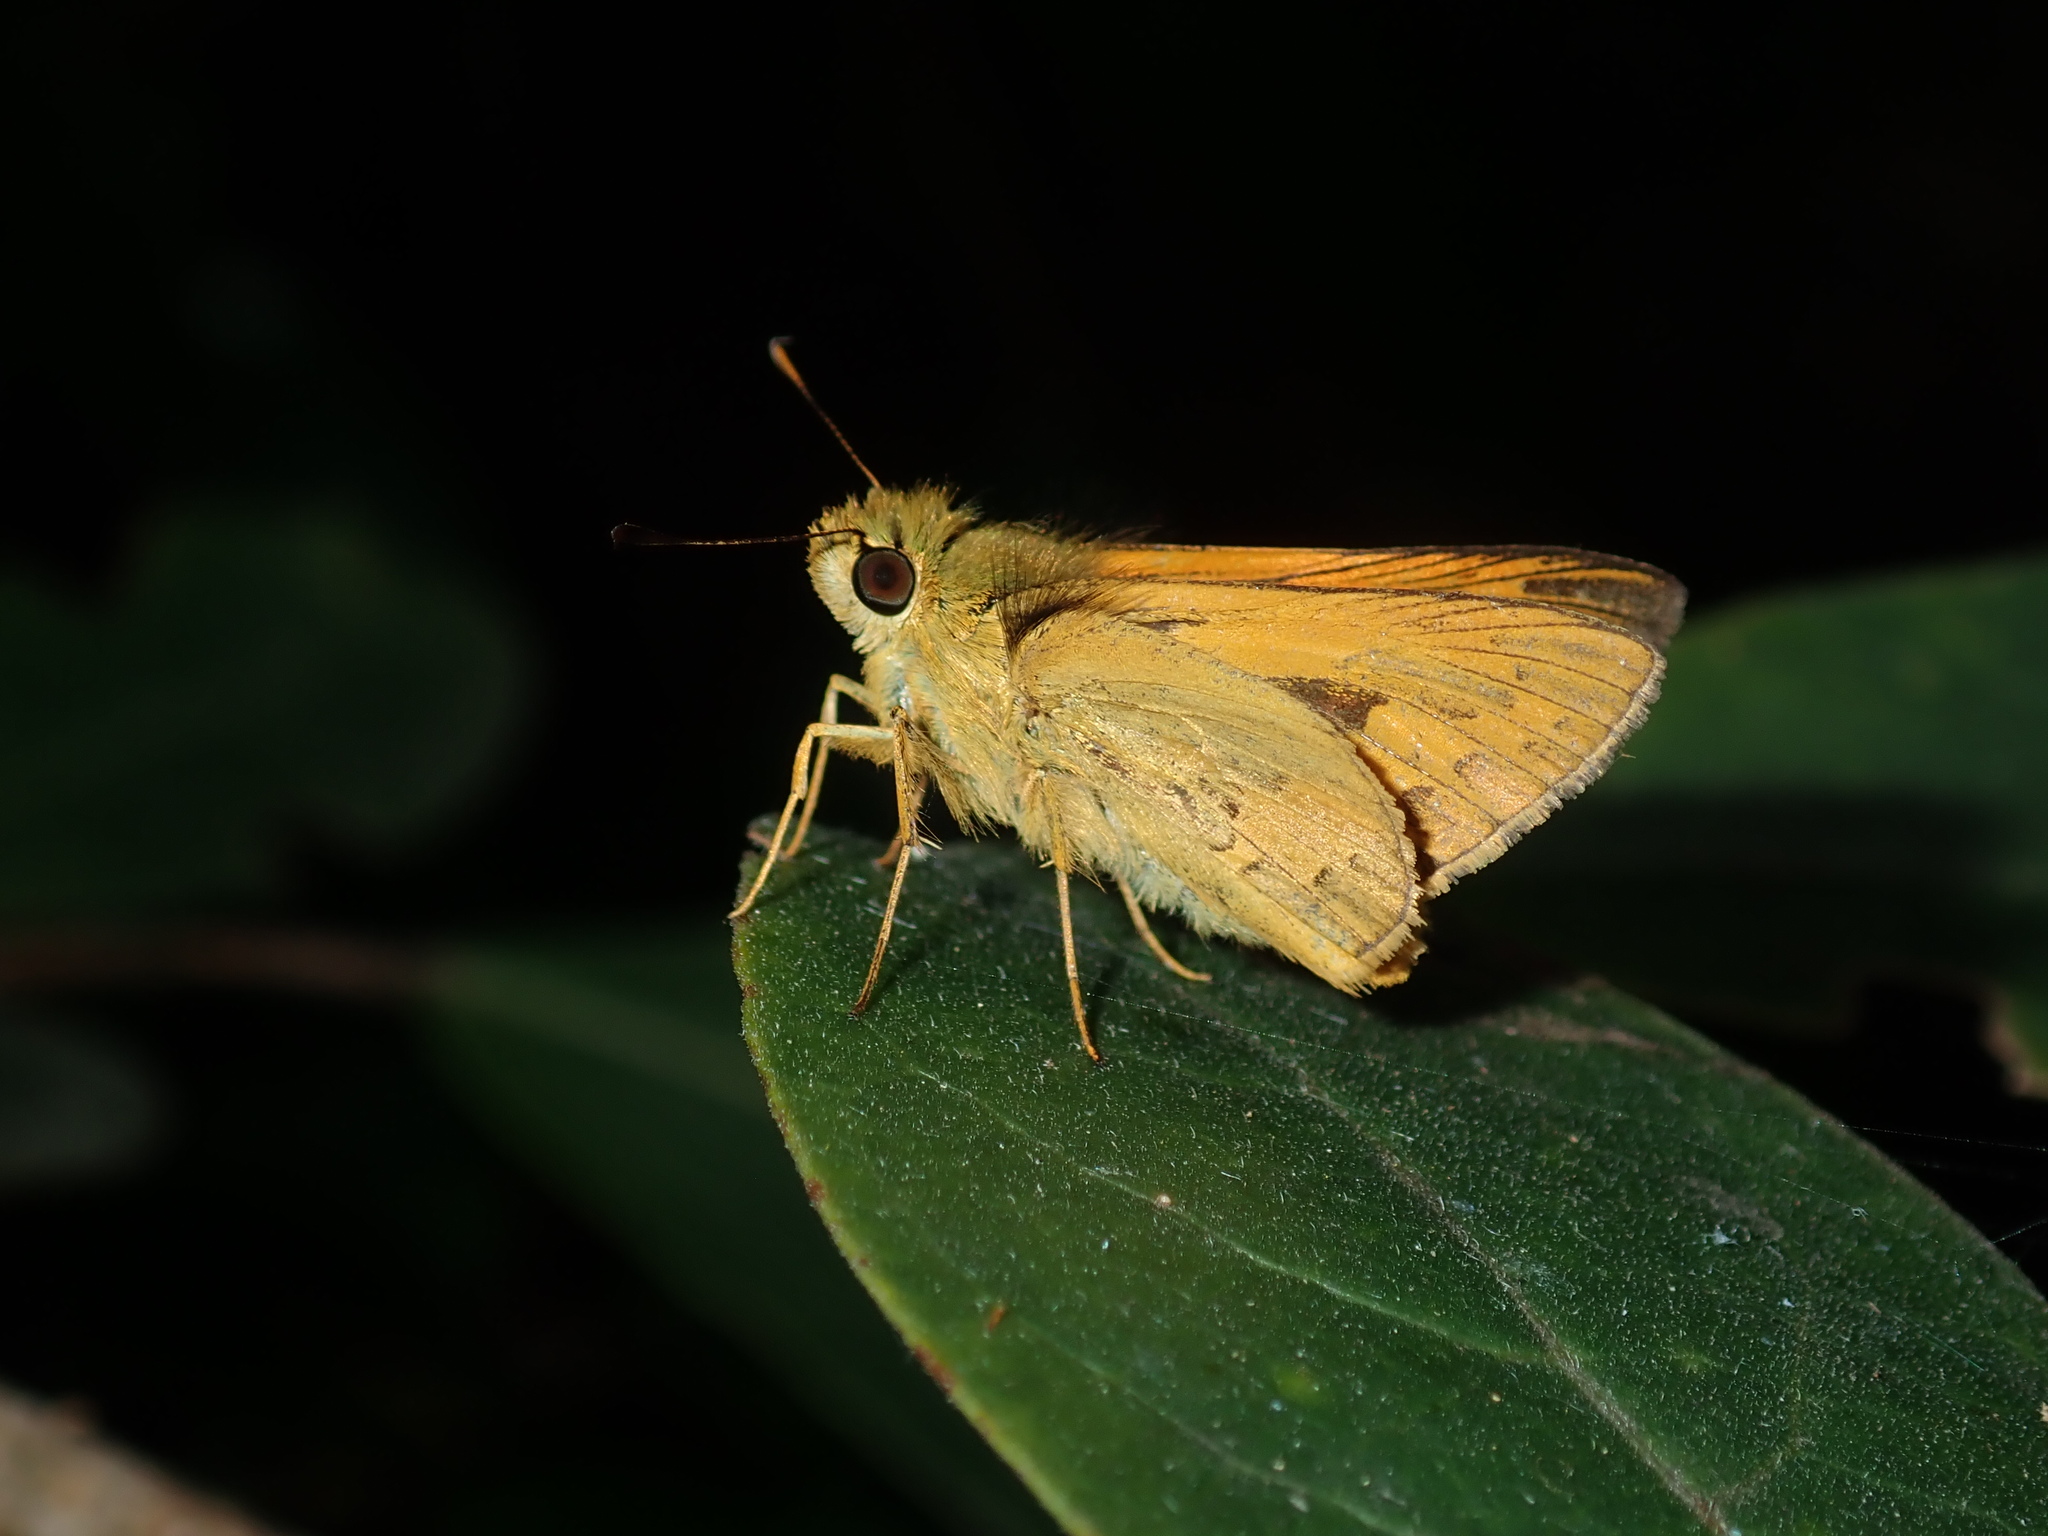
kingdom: Animalia
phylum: Arthropoda
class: Insecta
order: Lepidoptera
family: Hesperiidae
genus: Ocybadistes
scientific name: Ocybadistes walkeri
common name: Yellow-banded dart
